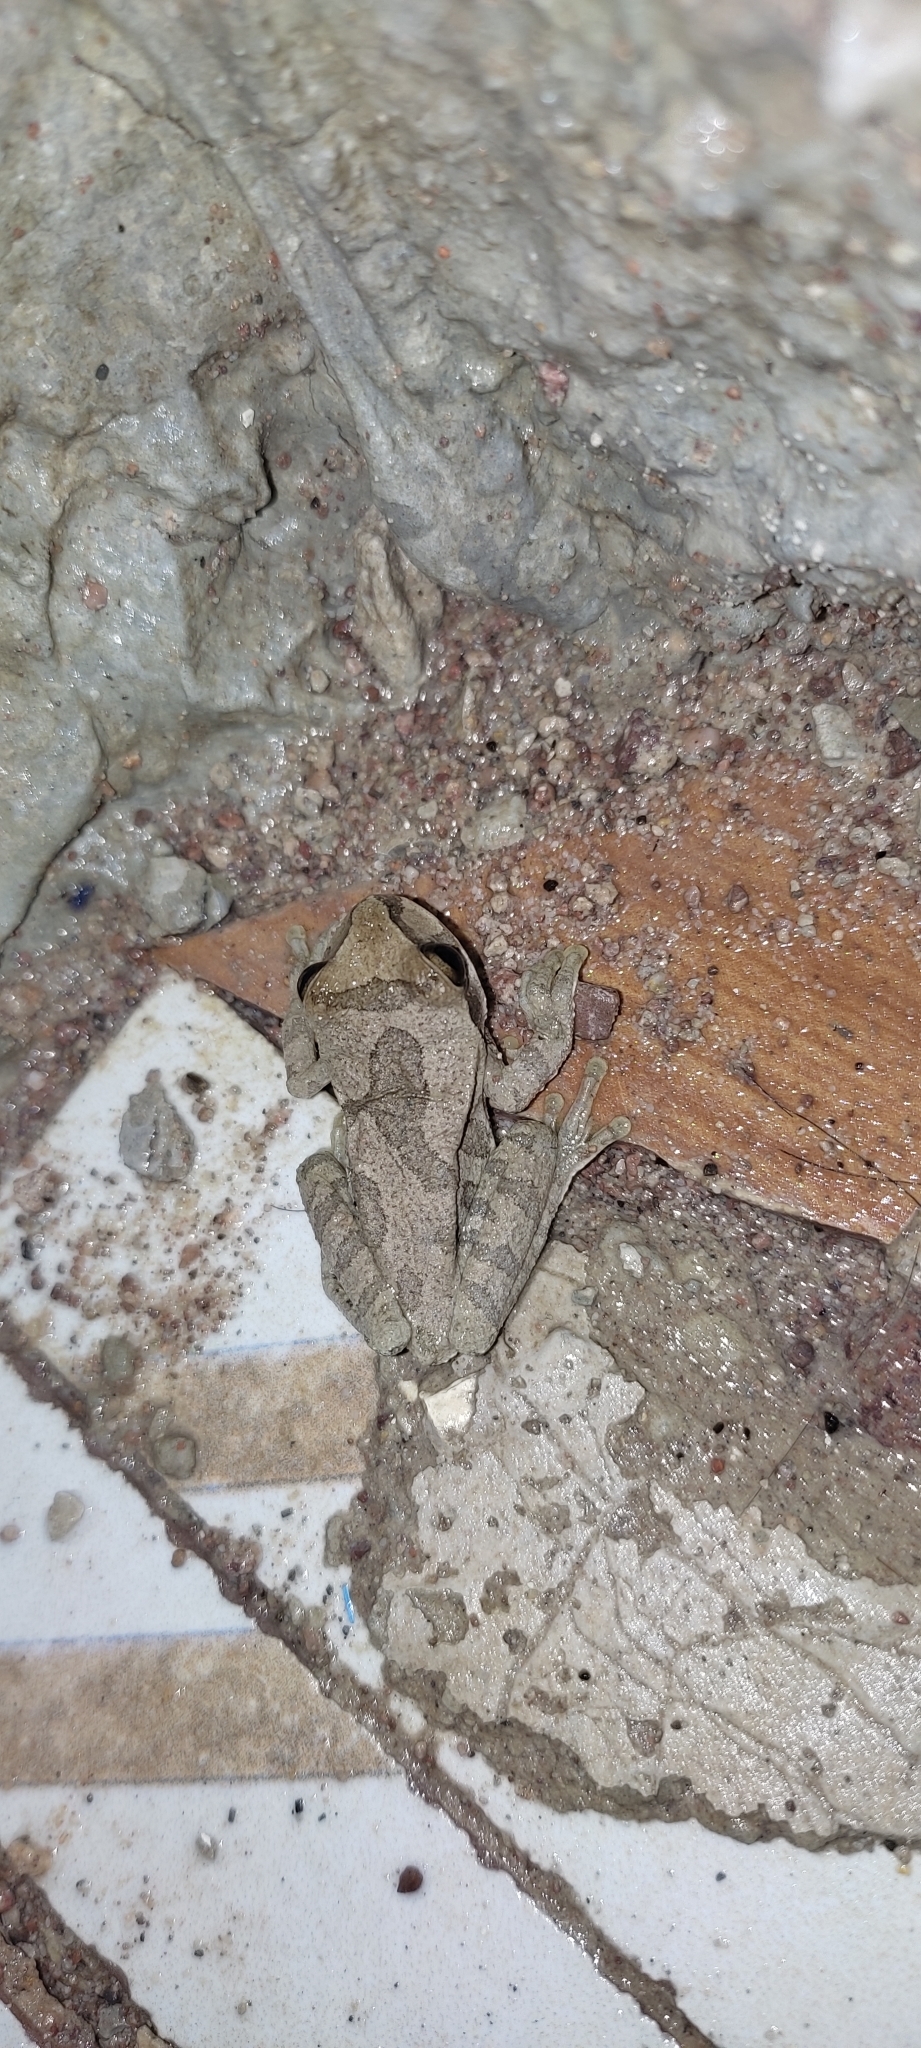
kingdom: Animalia
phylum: Chordata
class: Amphibia
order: Anura
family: Hylidae
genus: Smilisca
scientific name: Smilisca baudinii
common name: Mexican smilisca
